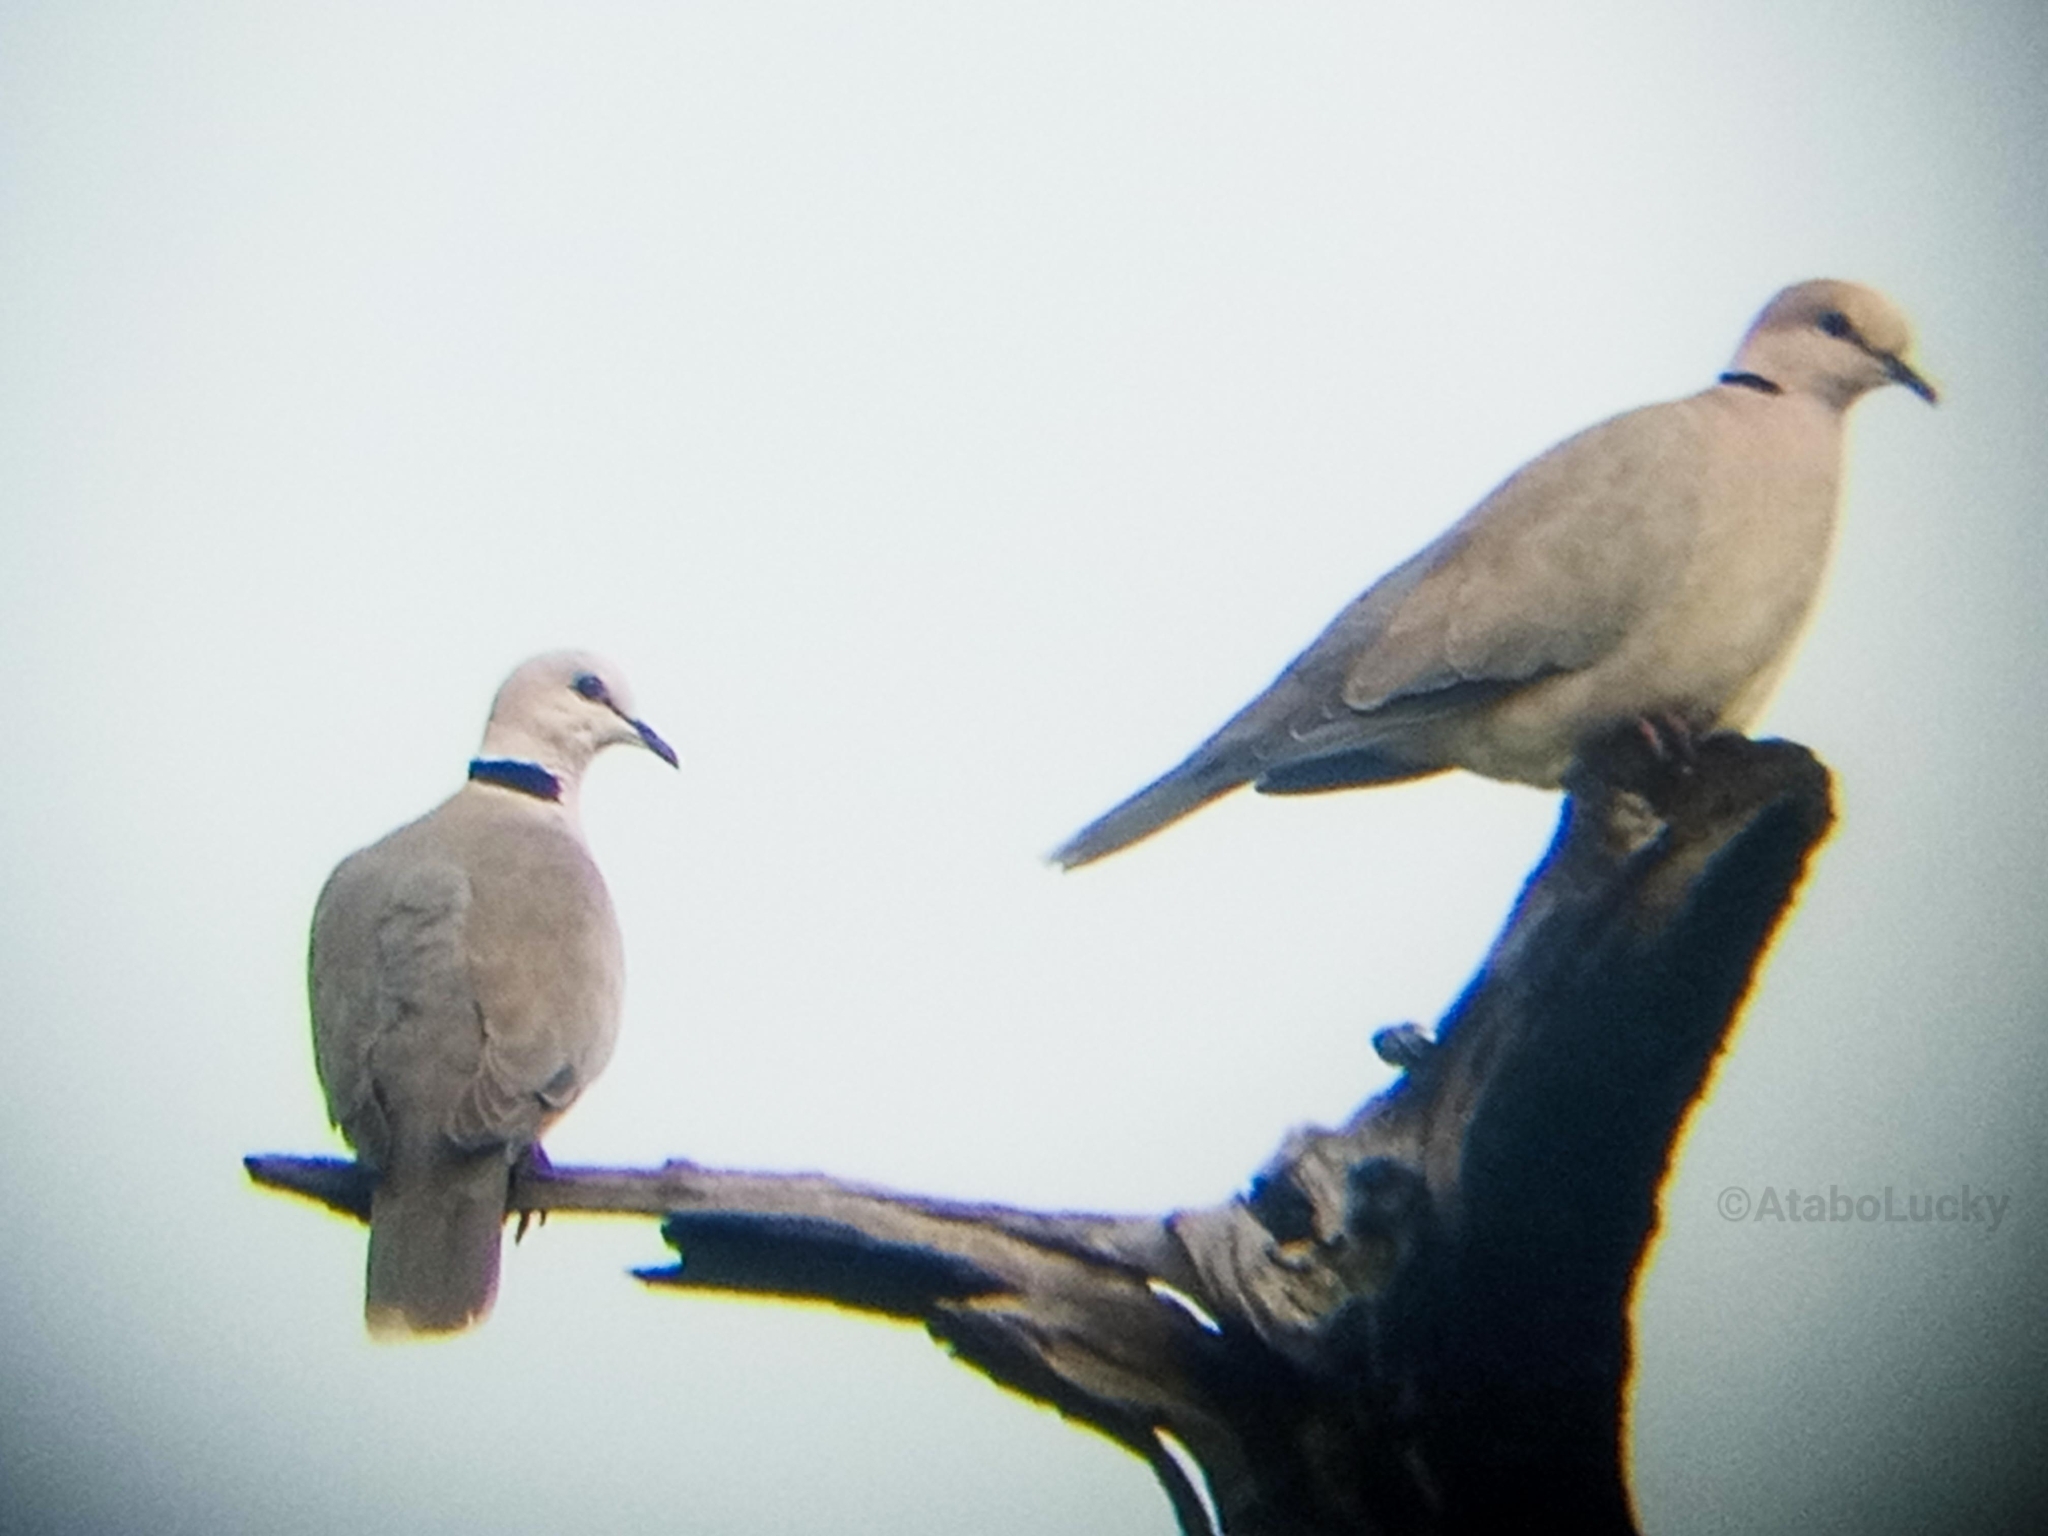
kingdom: Animalia
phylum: Chordata
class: Aves
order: Columbiformes
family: Columbidae
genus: Streptopelia
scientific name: Streptopelia vinacea
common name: Vinaceous dove
